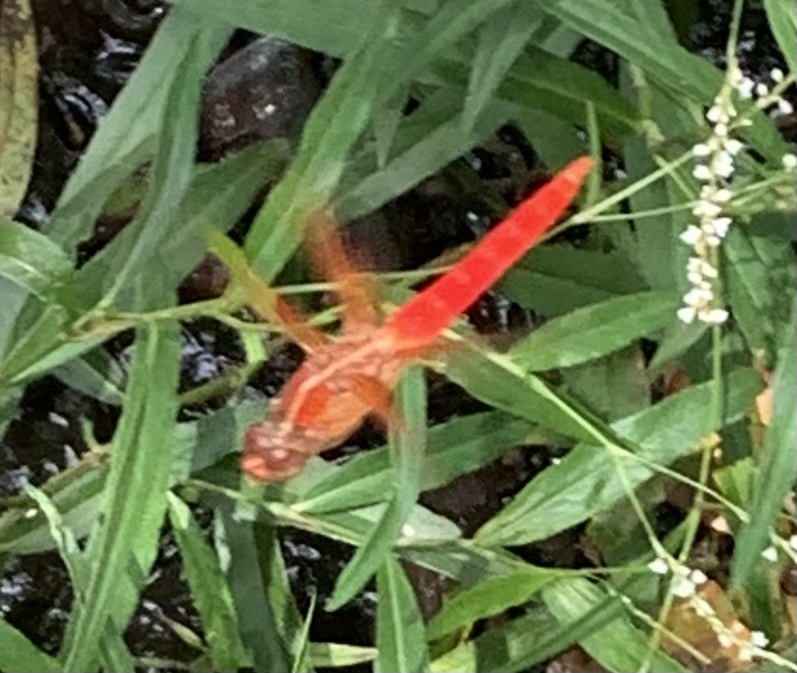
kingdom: Animalia
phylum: Arthropoda
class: Insecta
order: Odonata
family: Libellulidae
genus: Libellula
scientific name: Libellula croceipennis
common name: Neon skimmer
